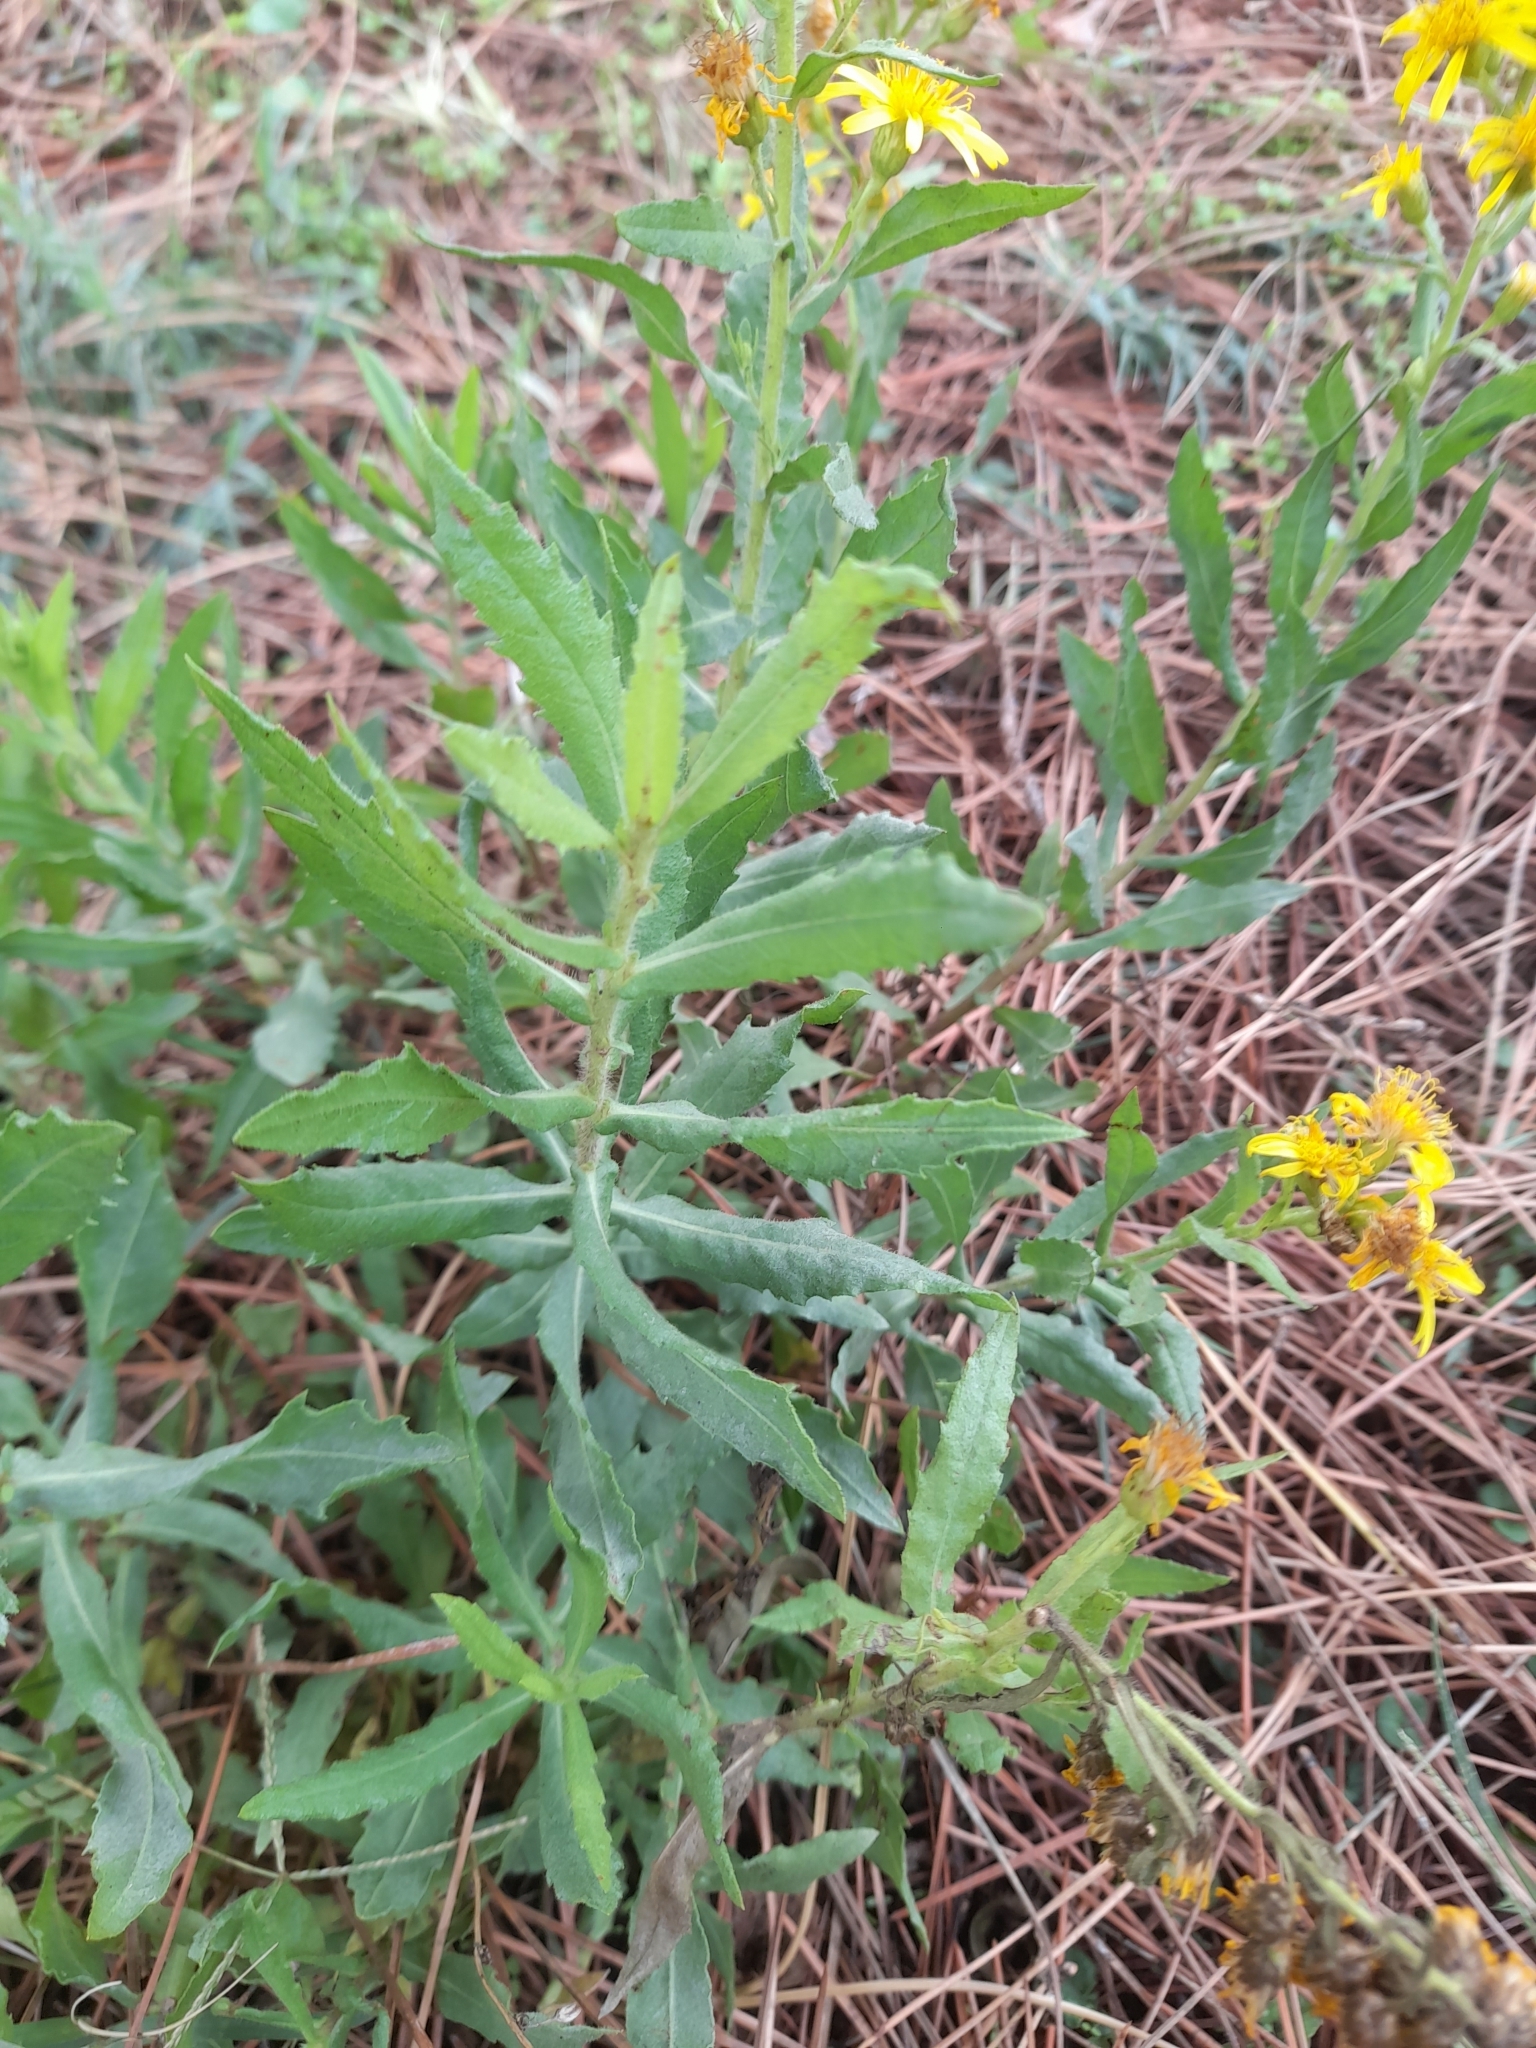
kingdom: Plantae
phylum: Tracheophyta
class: Magnoliopsida
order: Asterales
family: Asteraceae
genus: Dittrichia
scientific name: Dittrichia viscosa
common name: Woody fleabane
